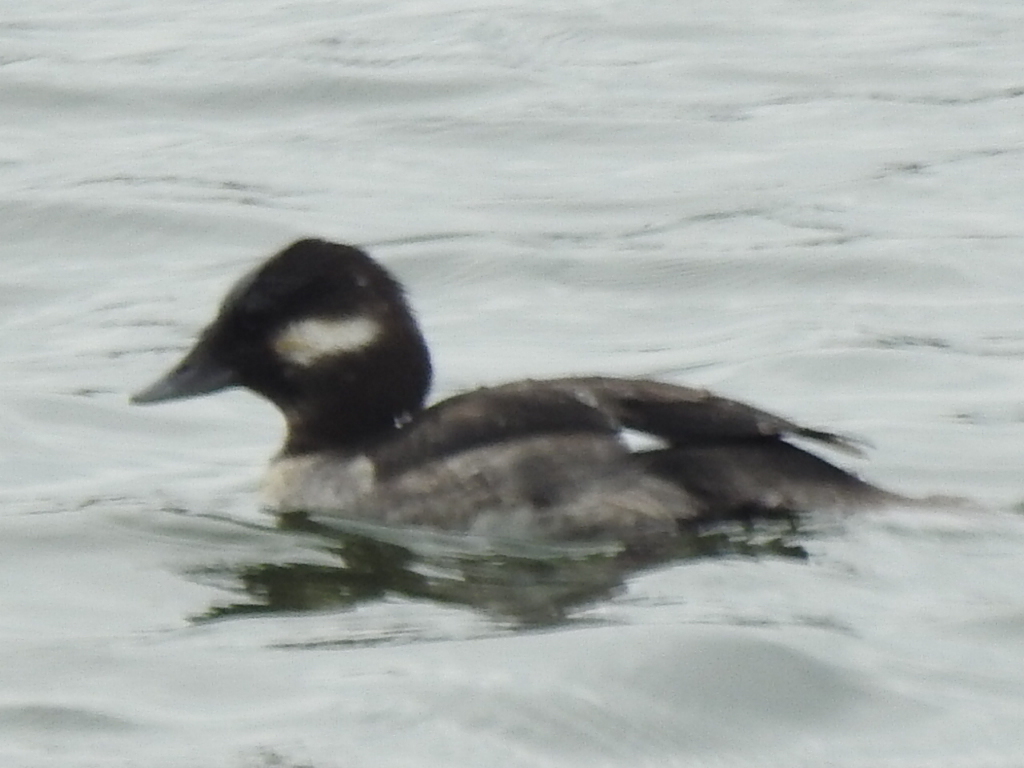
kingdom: Animalia
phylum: Chordata
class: Aves
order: Anseriformes
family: Anatidae
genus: Bucephala
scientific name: Bucephala albeola
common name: Bufflehead
